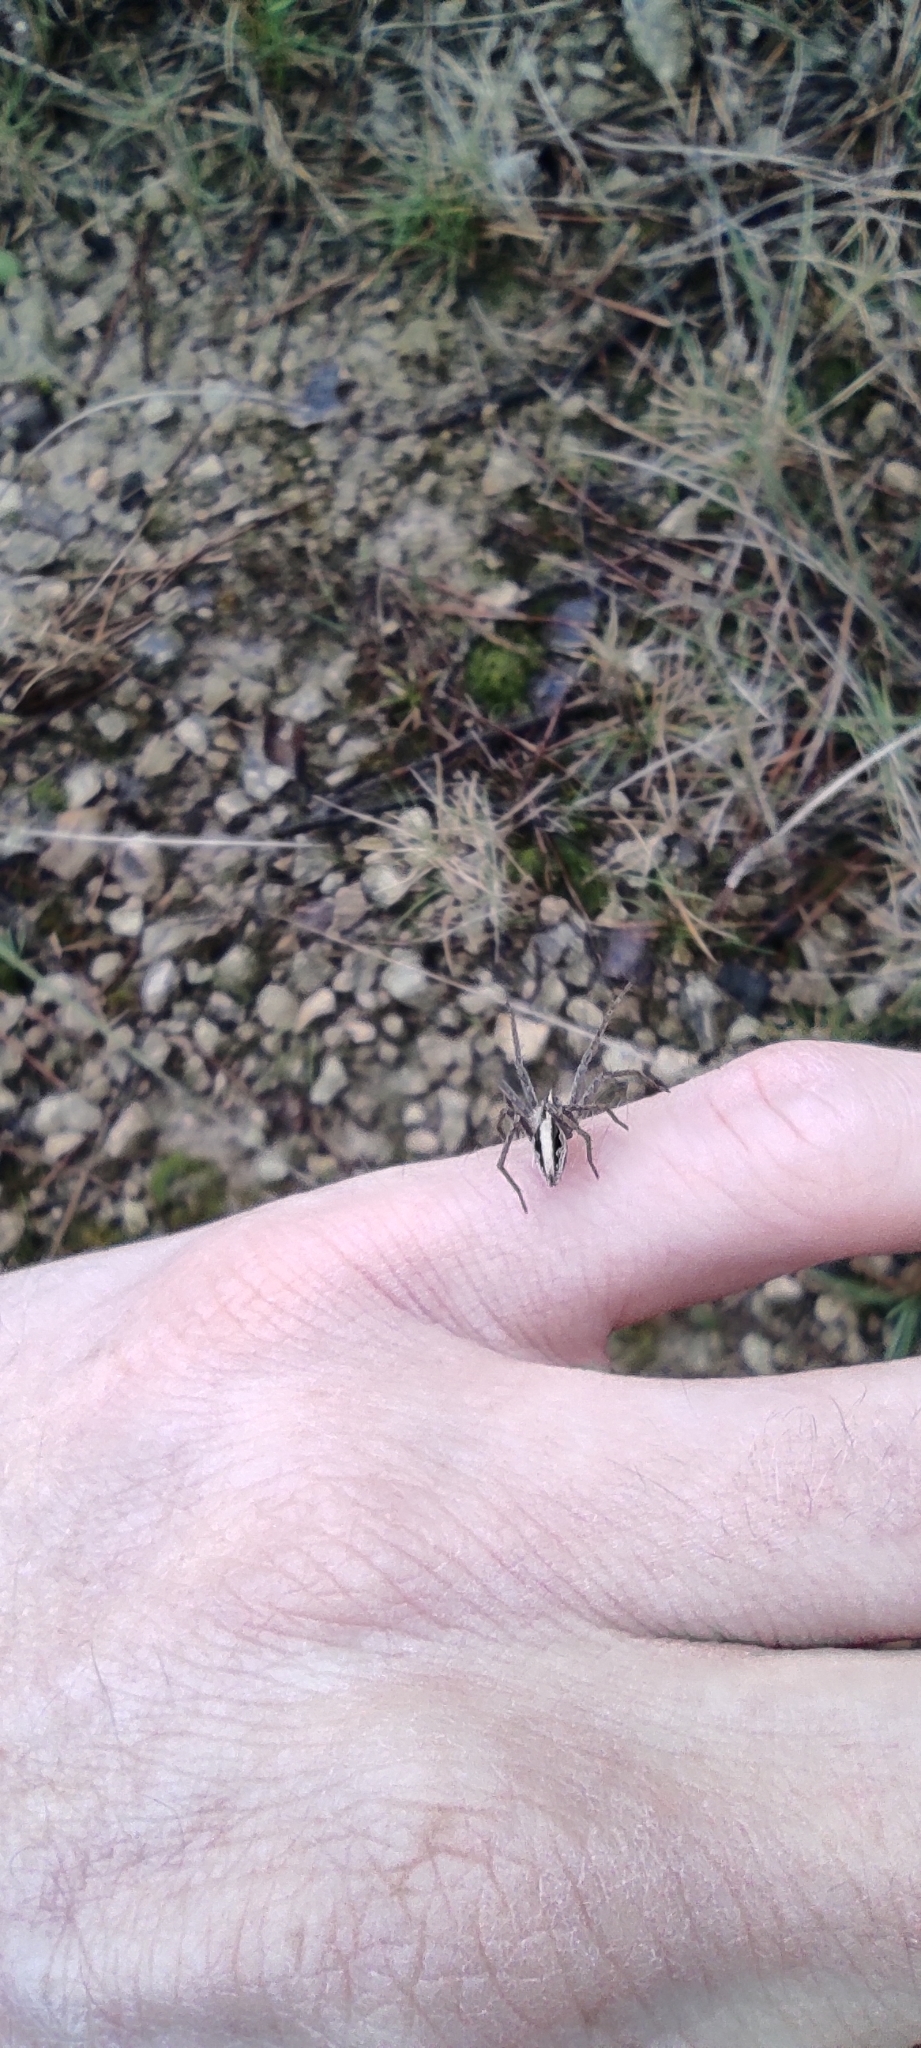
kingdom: Animalia
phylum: Arthropoda
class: Arachnida
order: Araneae
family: Pisauridae
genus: Pisaura
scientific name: Pisaura
